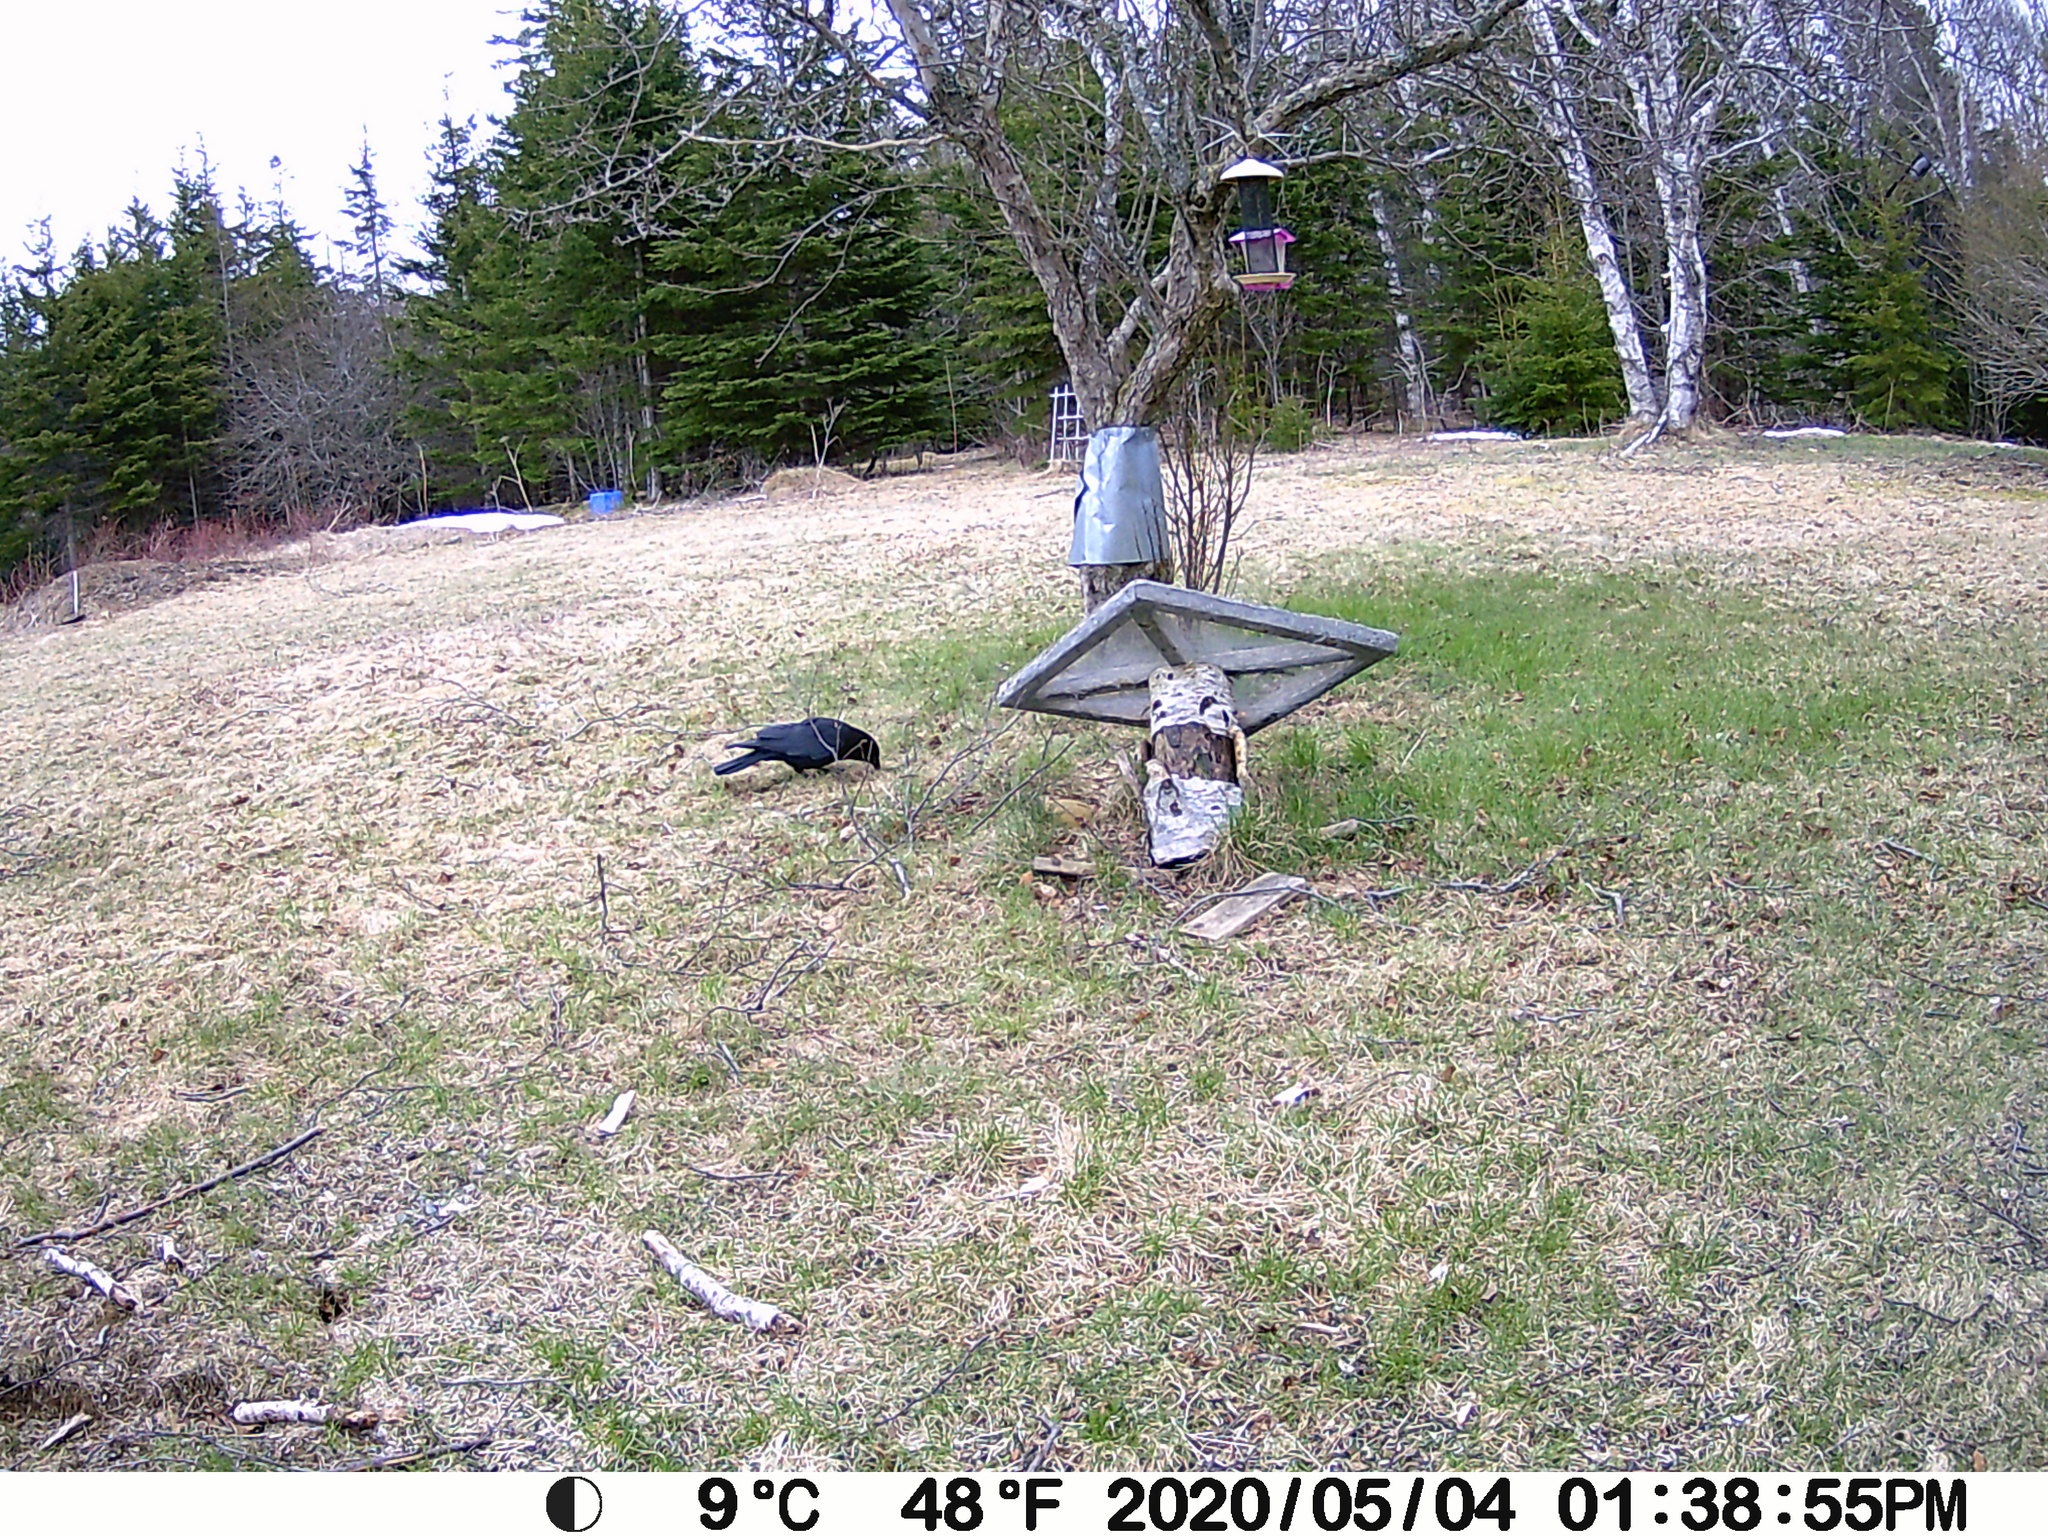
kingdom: Animalia
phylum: Chordata
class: Aves
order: Passeriformes
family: Corvidae
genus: Corvus
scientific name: Corvus brachyrhynchos
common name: American crow
